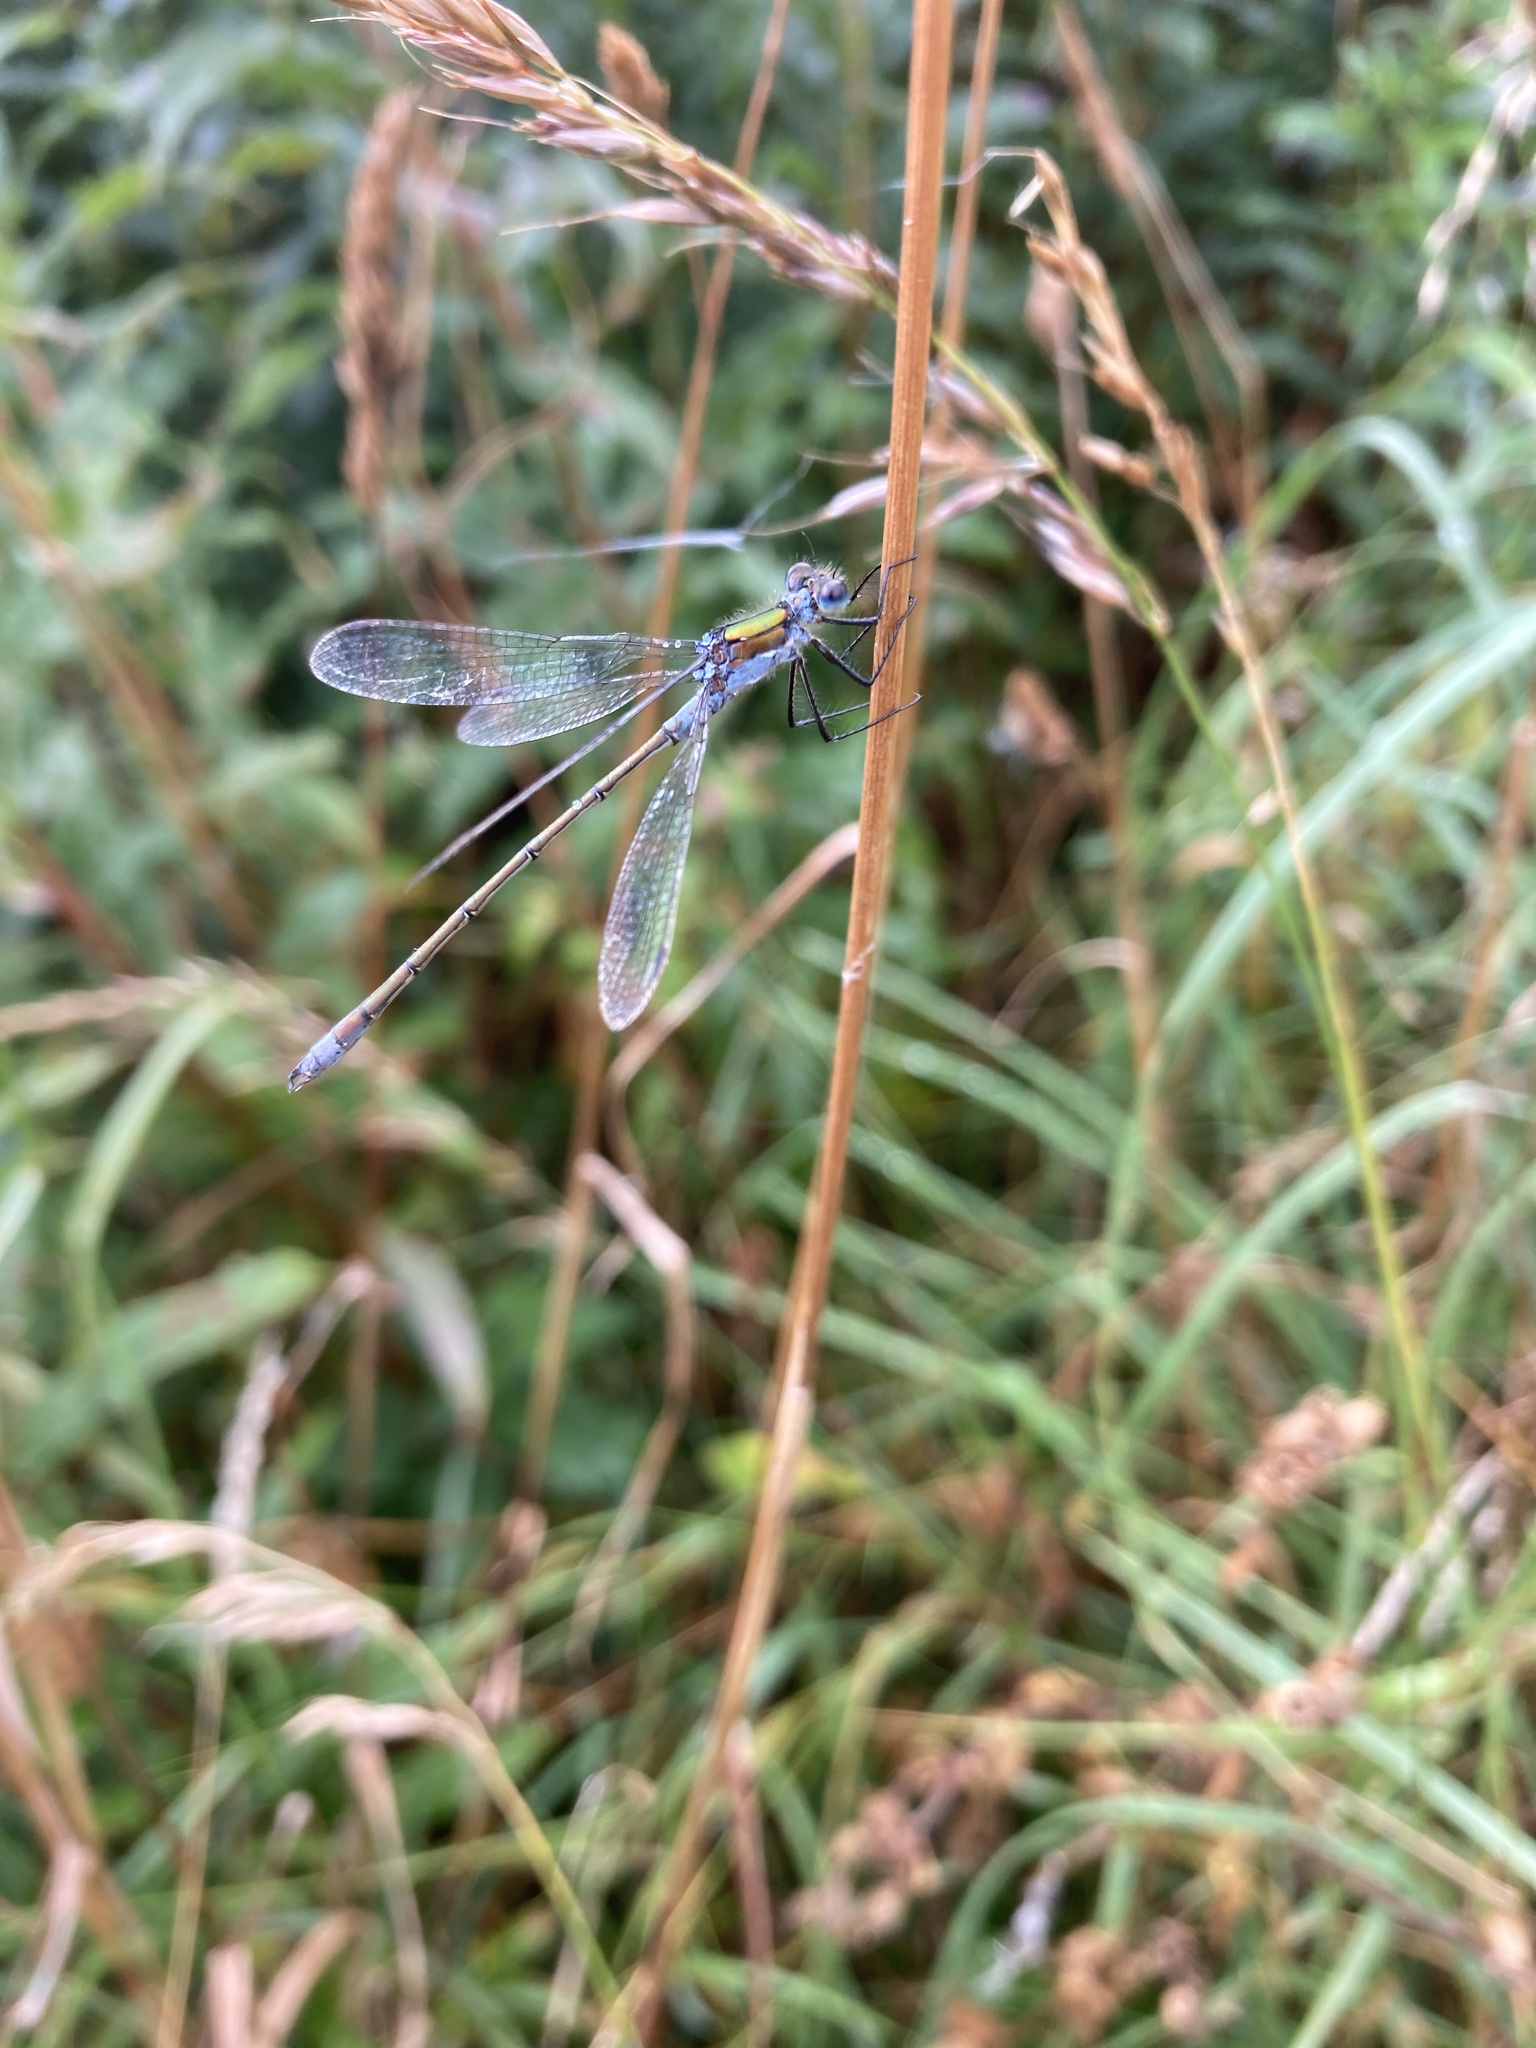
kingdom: Animalia
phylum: Arthropoda
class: Insecta
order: Odonata
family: Lestidae
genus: Lestes
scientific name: Lestes sponsa
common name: Common spreadwing
